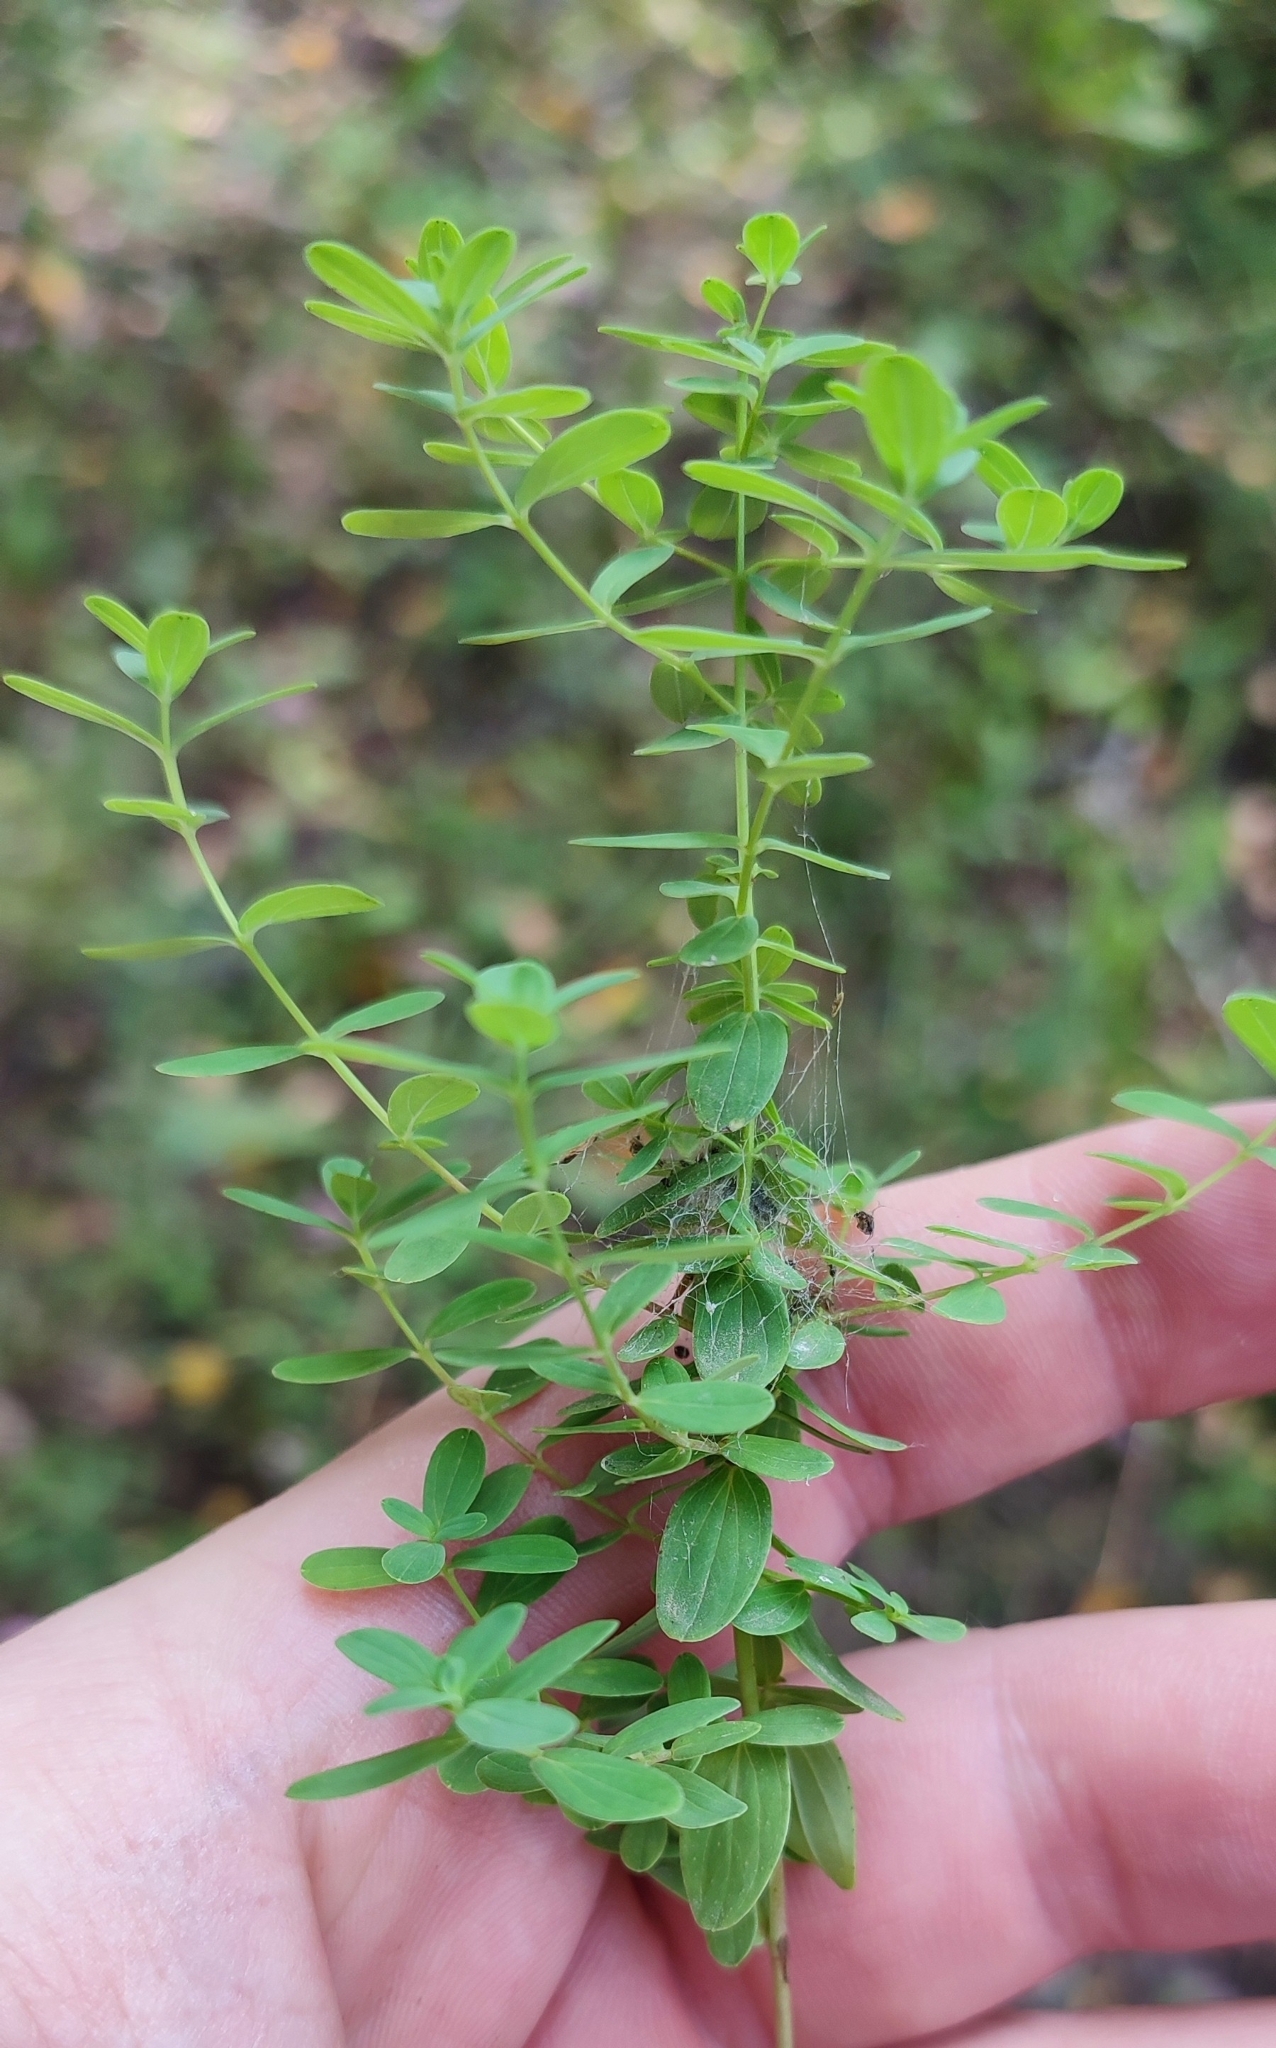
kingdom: Plantae
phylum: Tracheophyta
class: Magnoliopsida
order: Malpighiales
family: Hypericaceae
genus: Hypericum
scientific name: Hypericum perforatum
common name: Common st. johnswort
